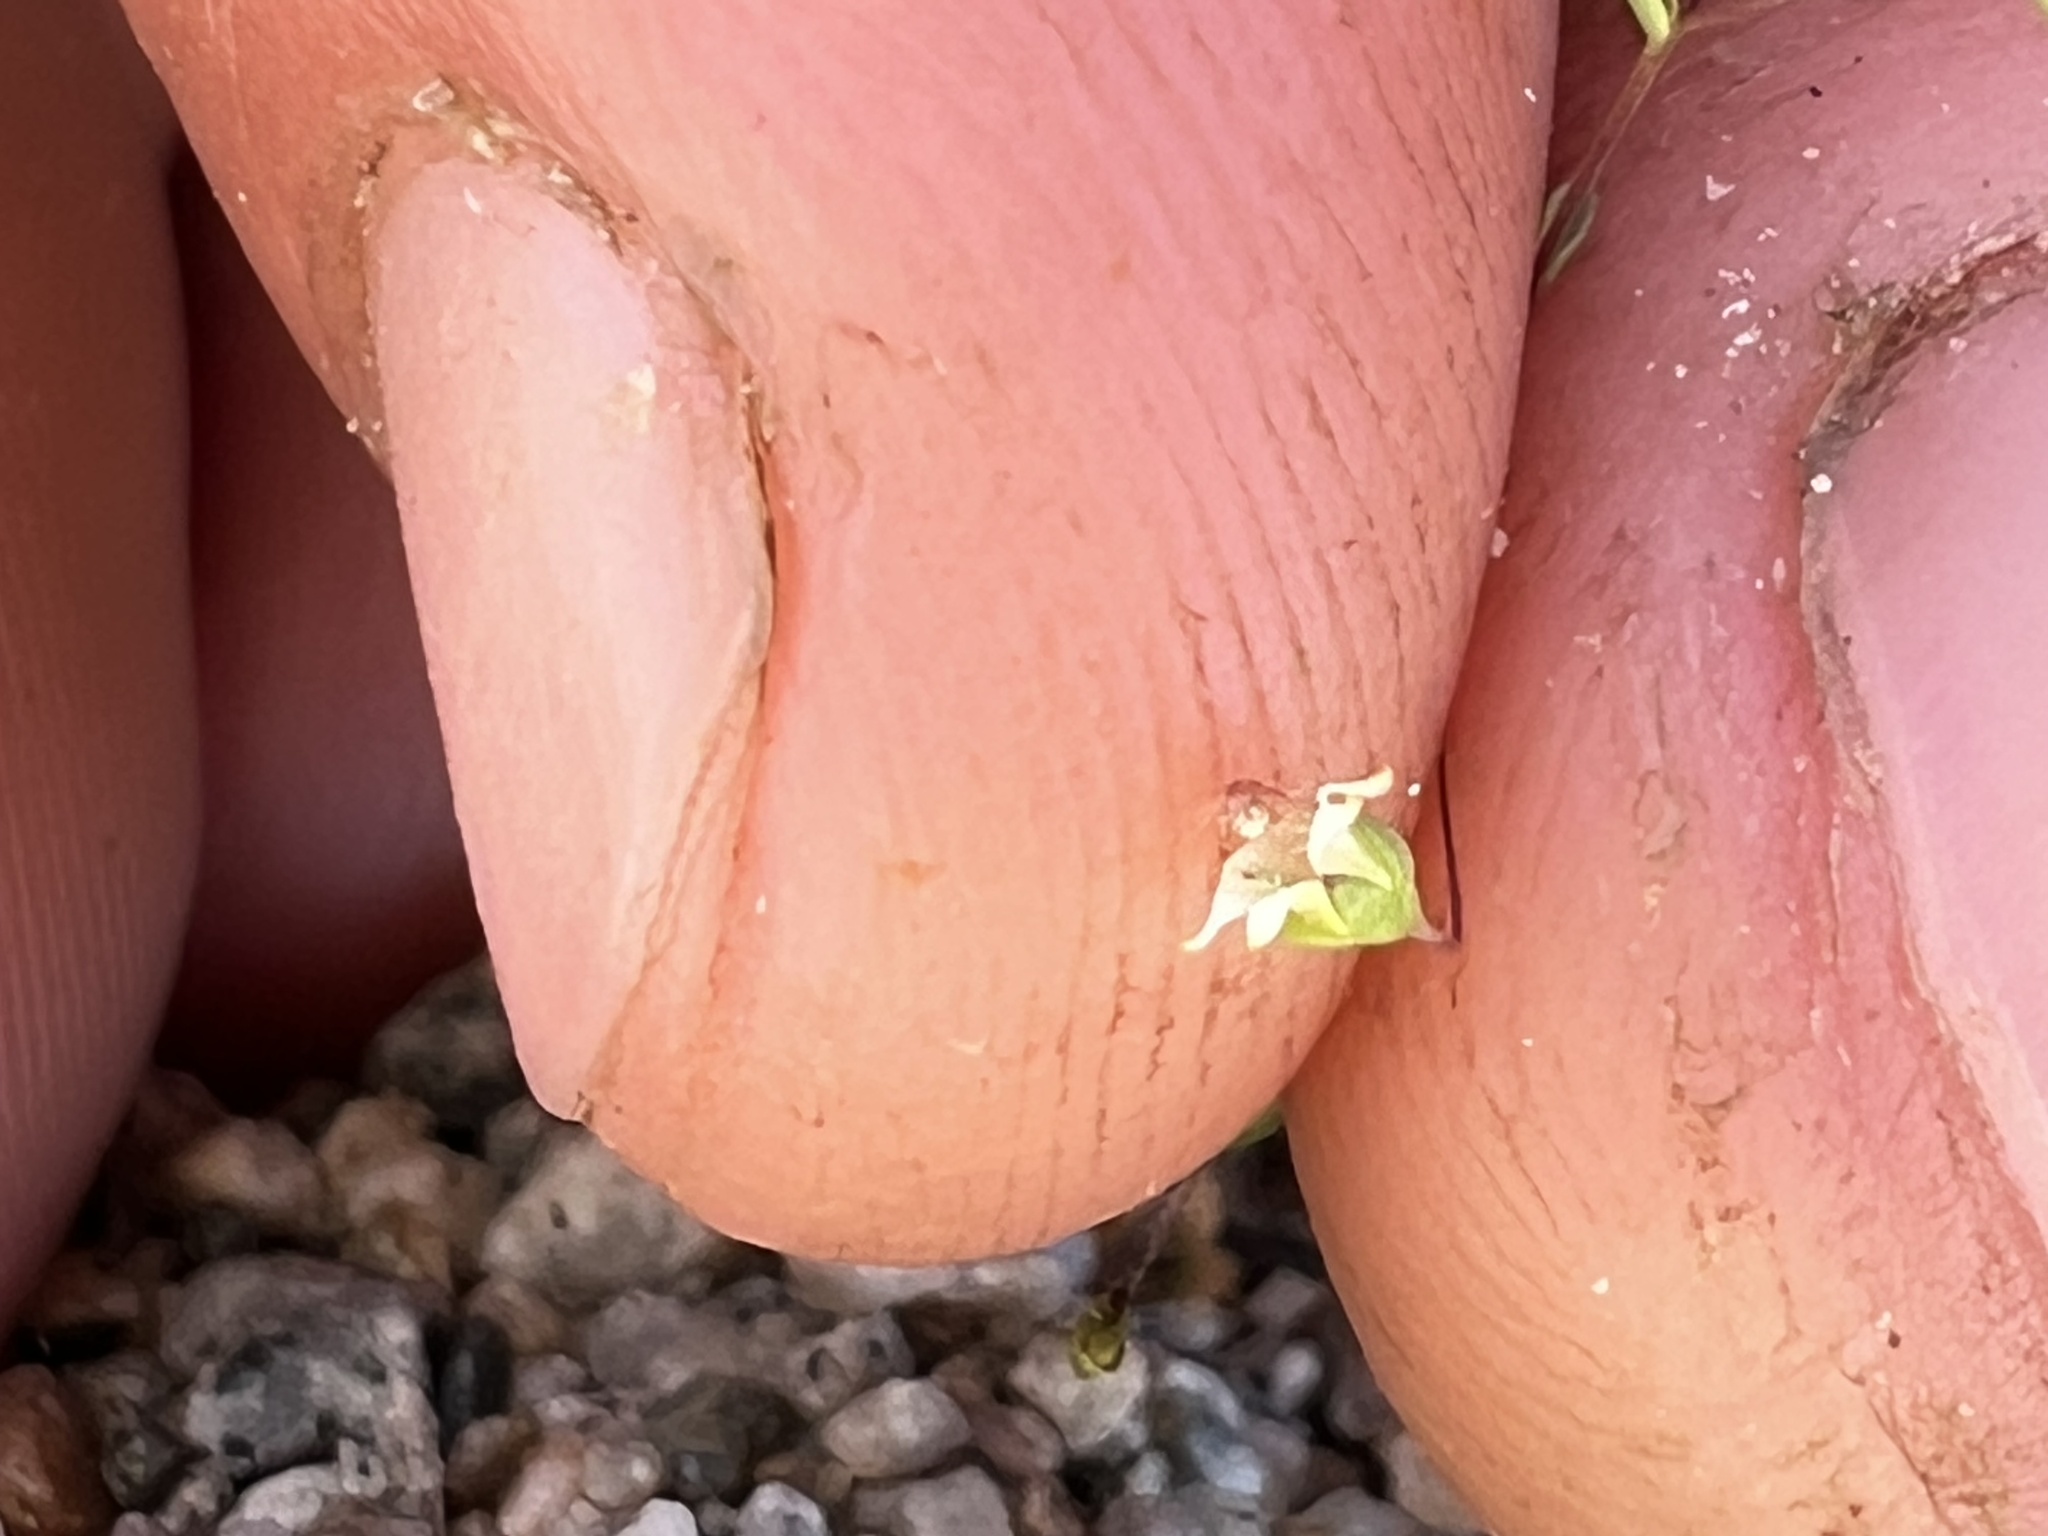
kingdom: Plantae
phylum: Tracheophyta
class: Magnoliopsida
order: Asterales
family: Campanulaceae
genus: Nemacladus
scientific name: Nemacladus eastwoodiae
